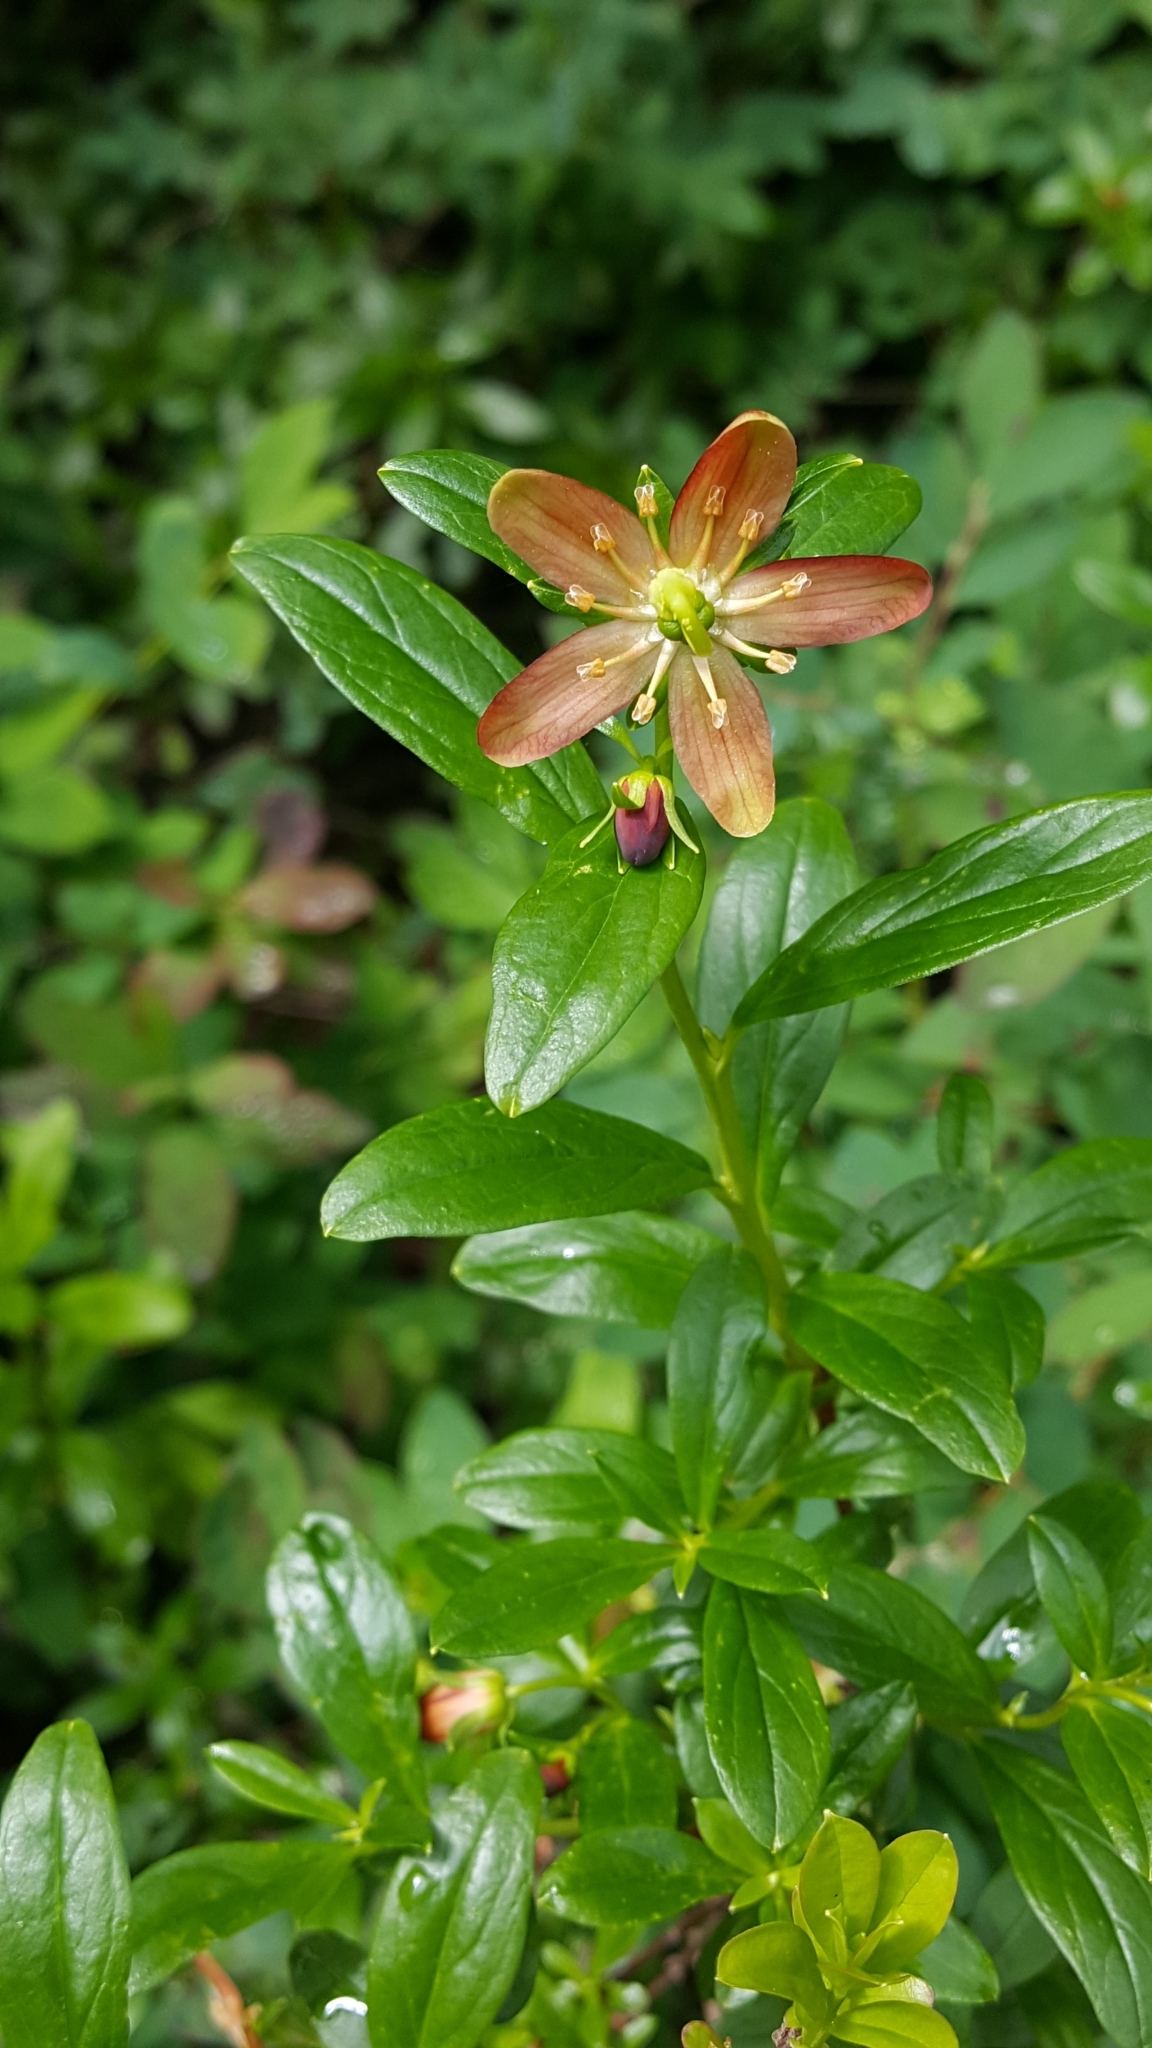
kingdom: Plantae
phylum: Tracheophyta
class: Magnoliopsida
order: Ericales
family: Ericaceae
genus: Elliottia
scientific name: Elliottia pyroliflora
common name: Copperbush
